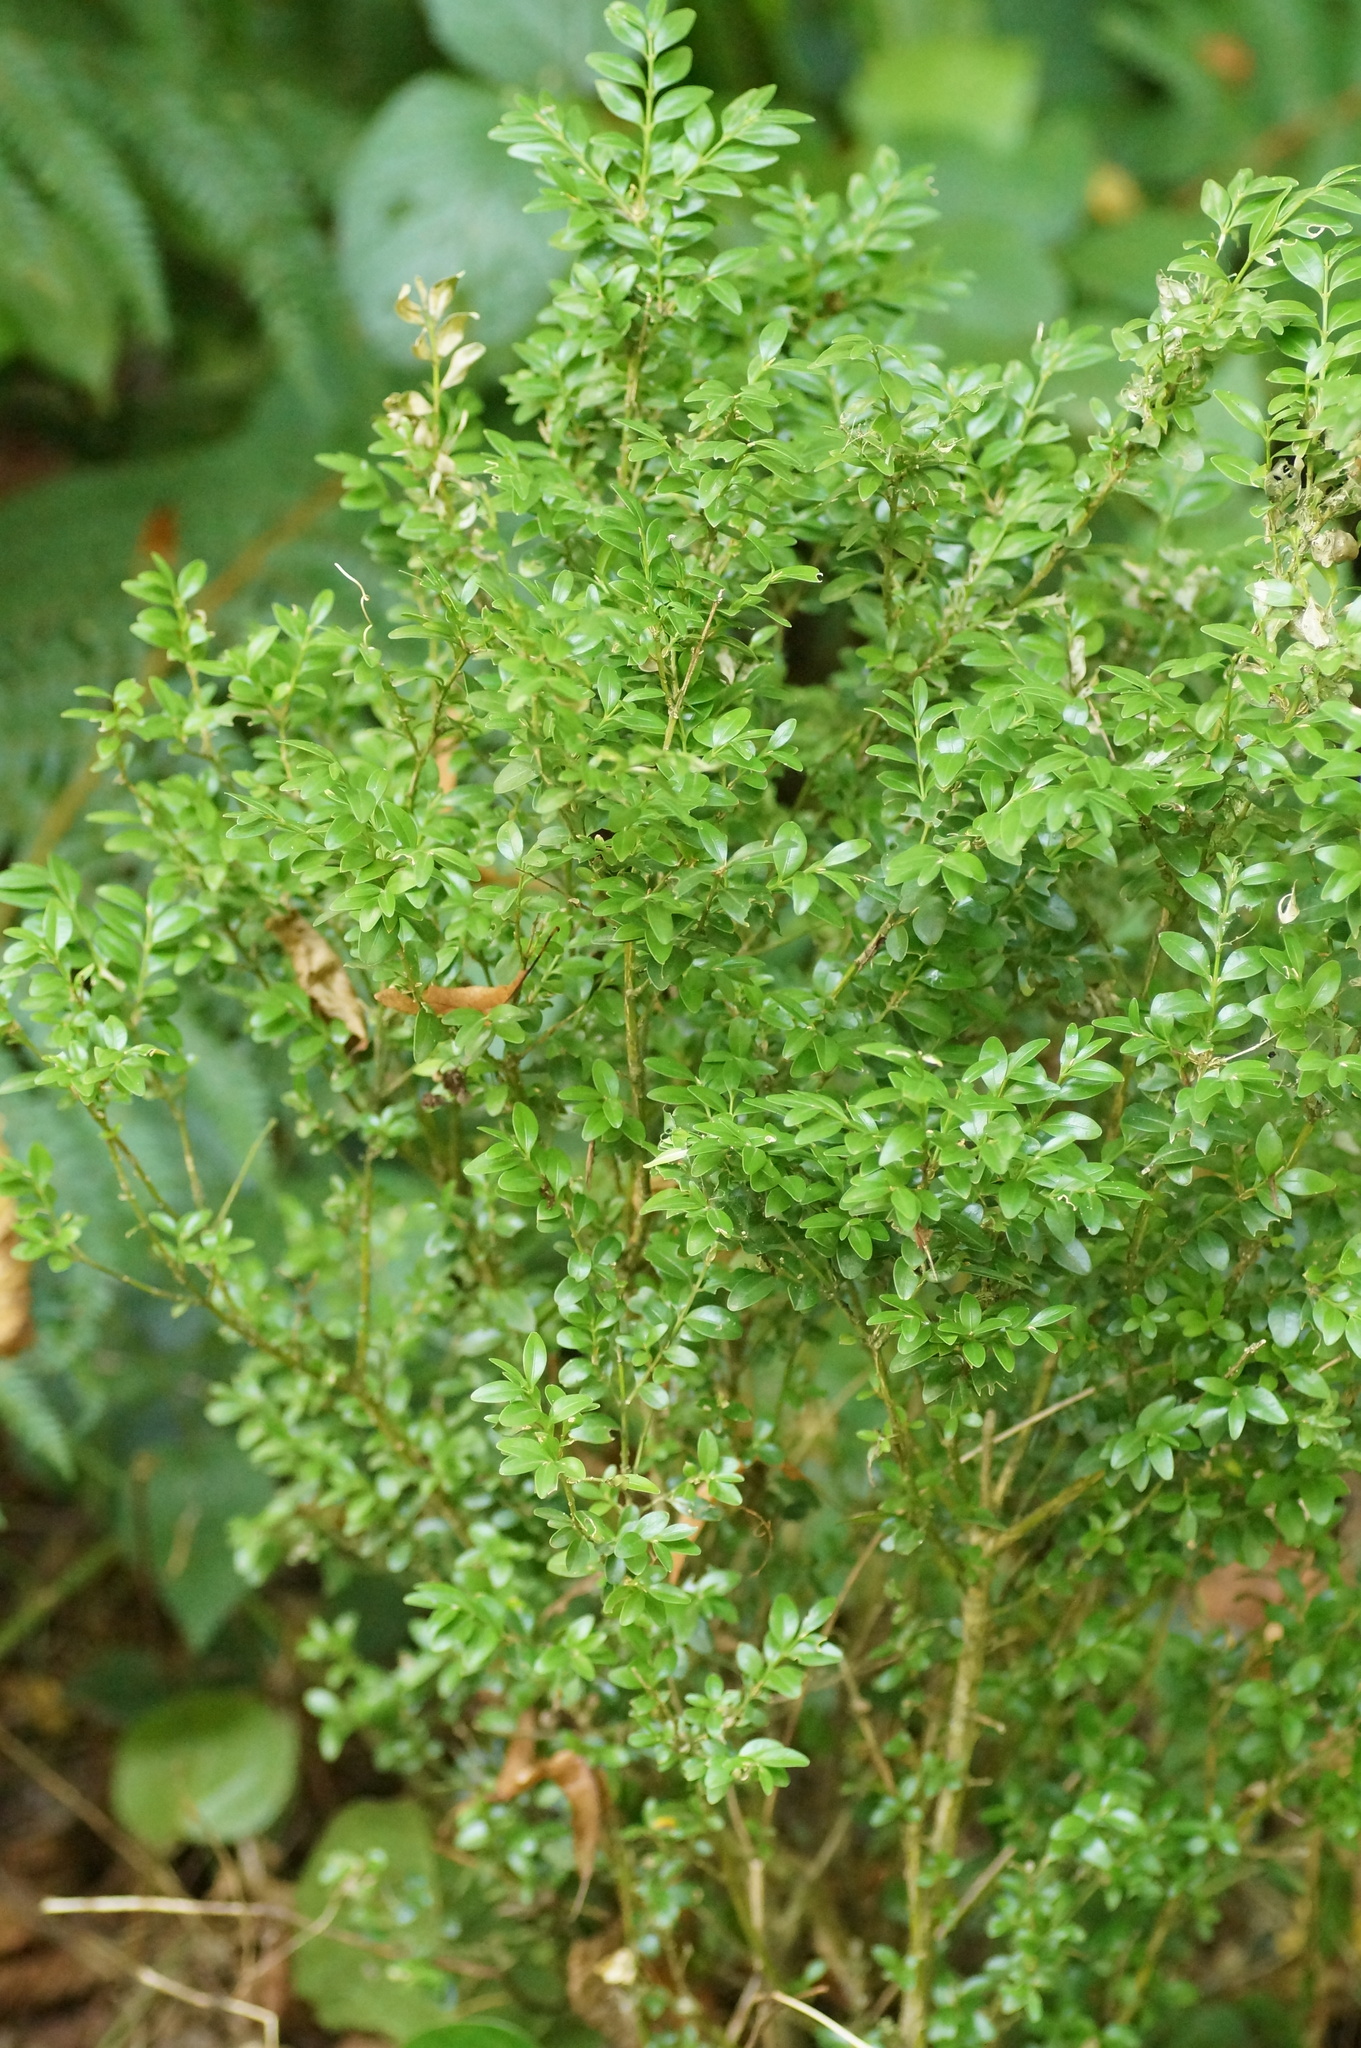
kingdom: Plantae
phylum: Tracheophyta
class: Magnoliopsida
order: Buxales
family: Buxaceae
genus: Buxus
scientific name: Buxus sempervirens
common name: Box
